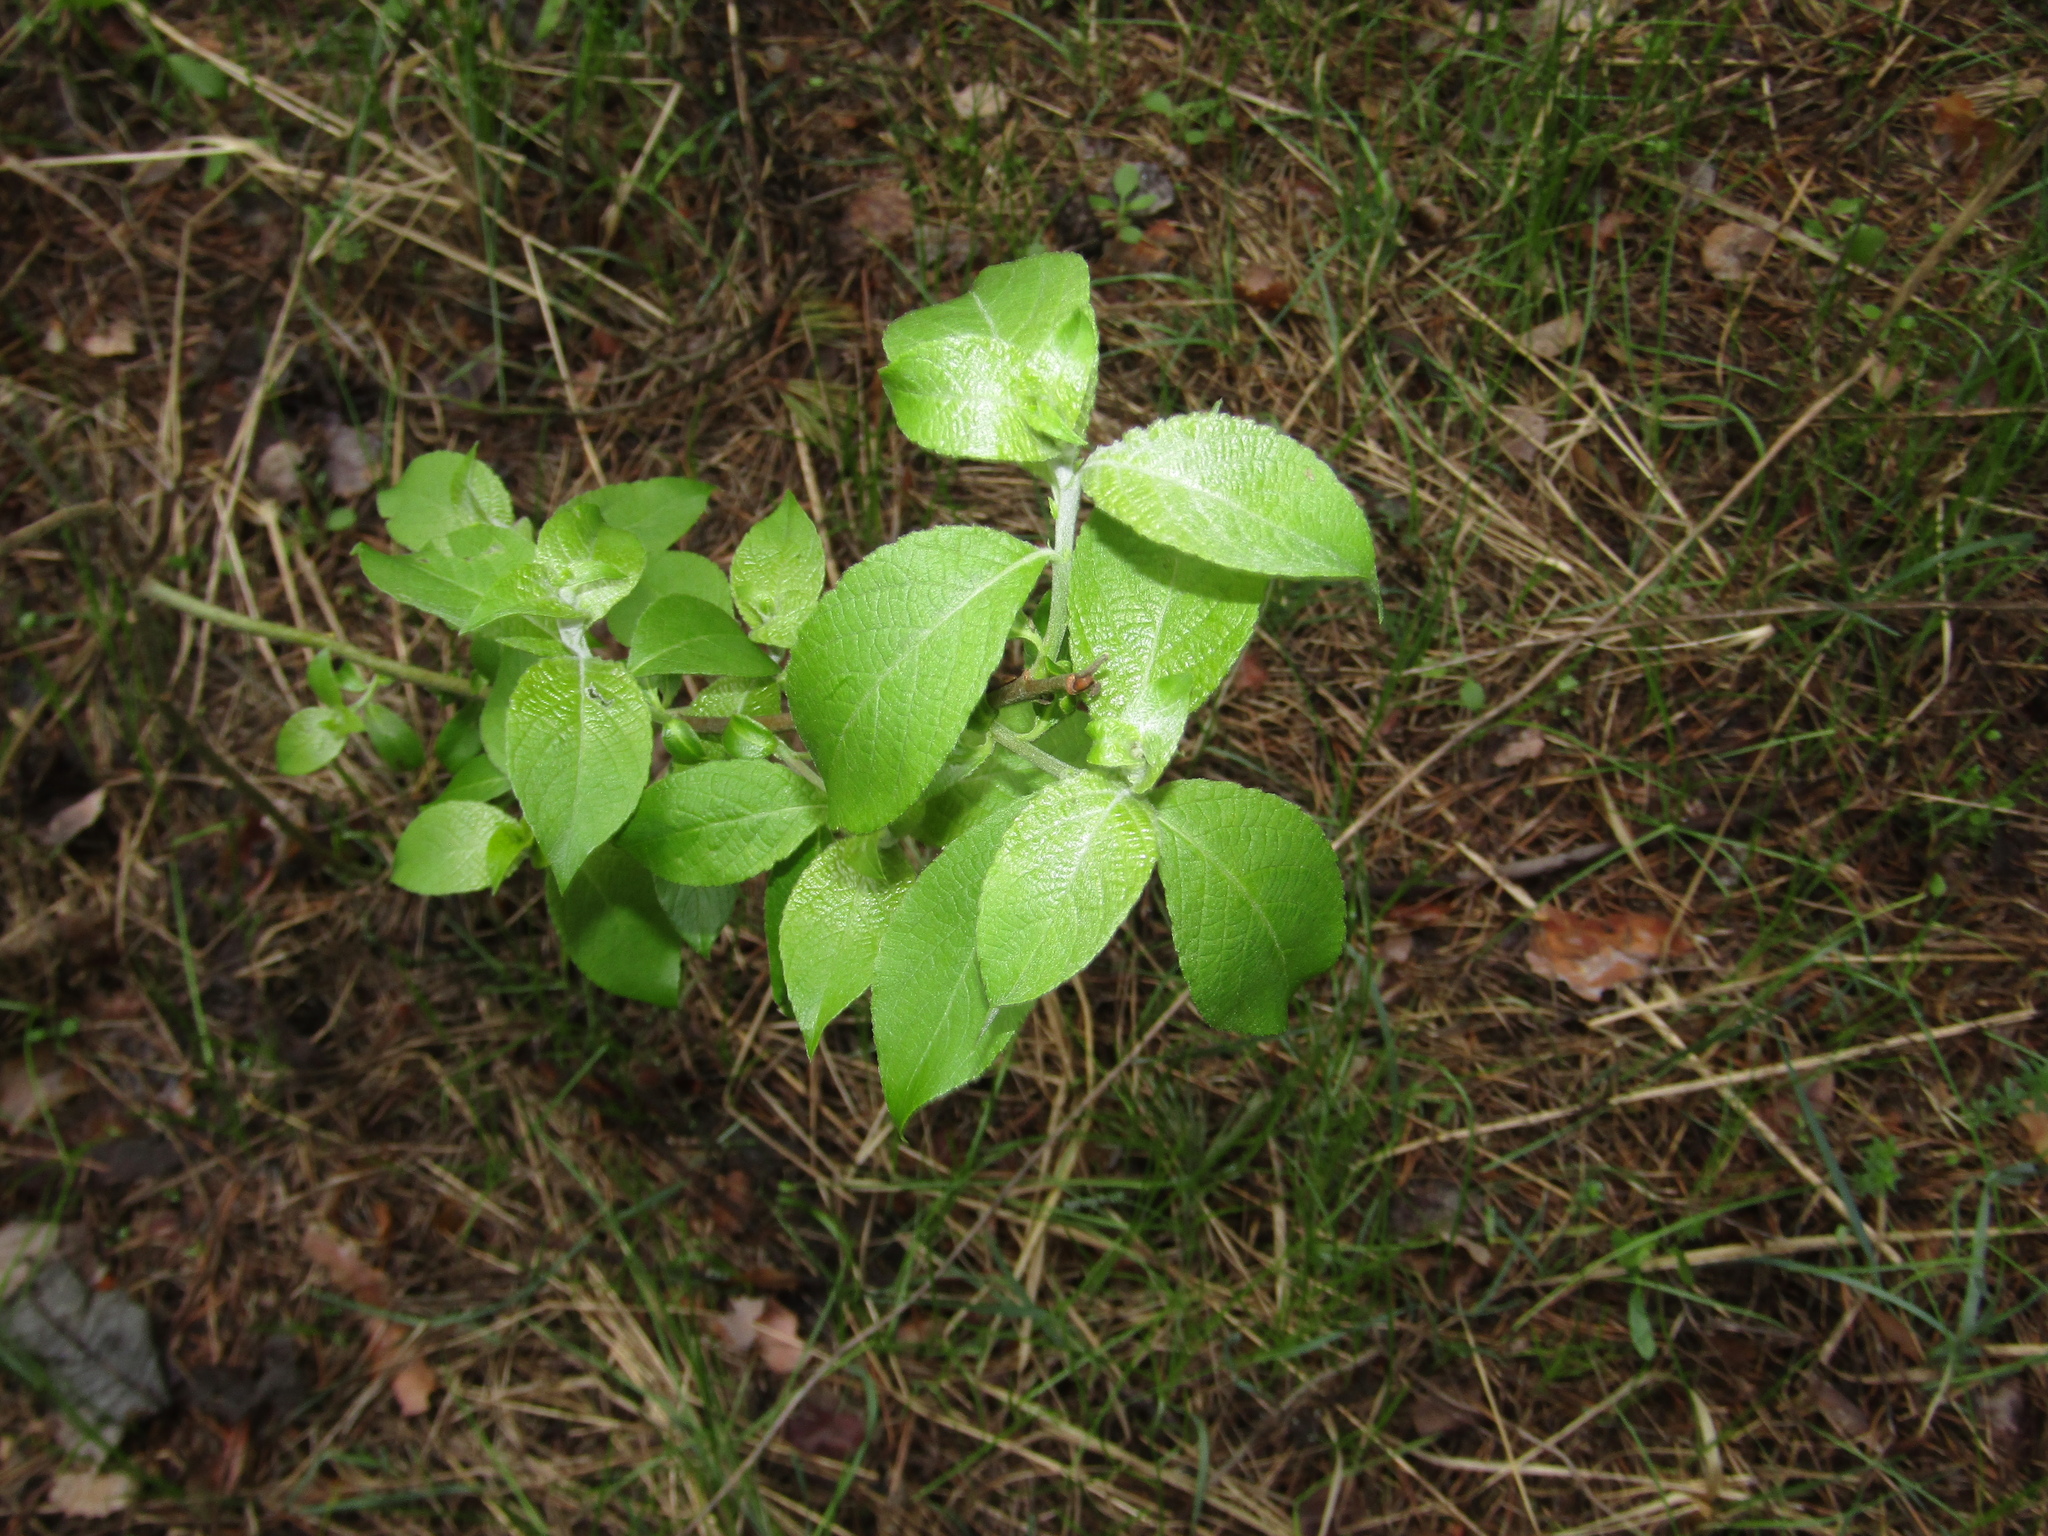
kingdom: Plantae
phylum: Tracheophyta
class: Magnoliopsida
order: Malpighiales
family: Salicaceae
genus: Salix
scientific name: Salix caprea
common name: Goat willow
